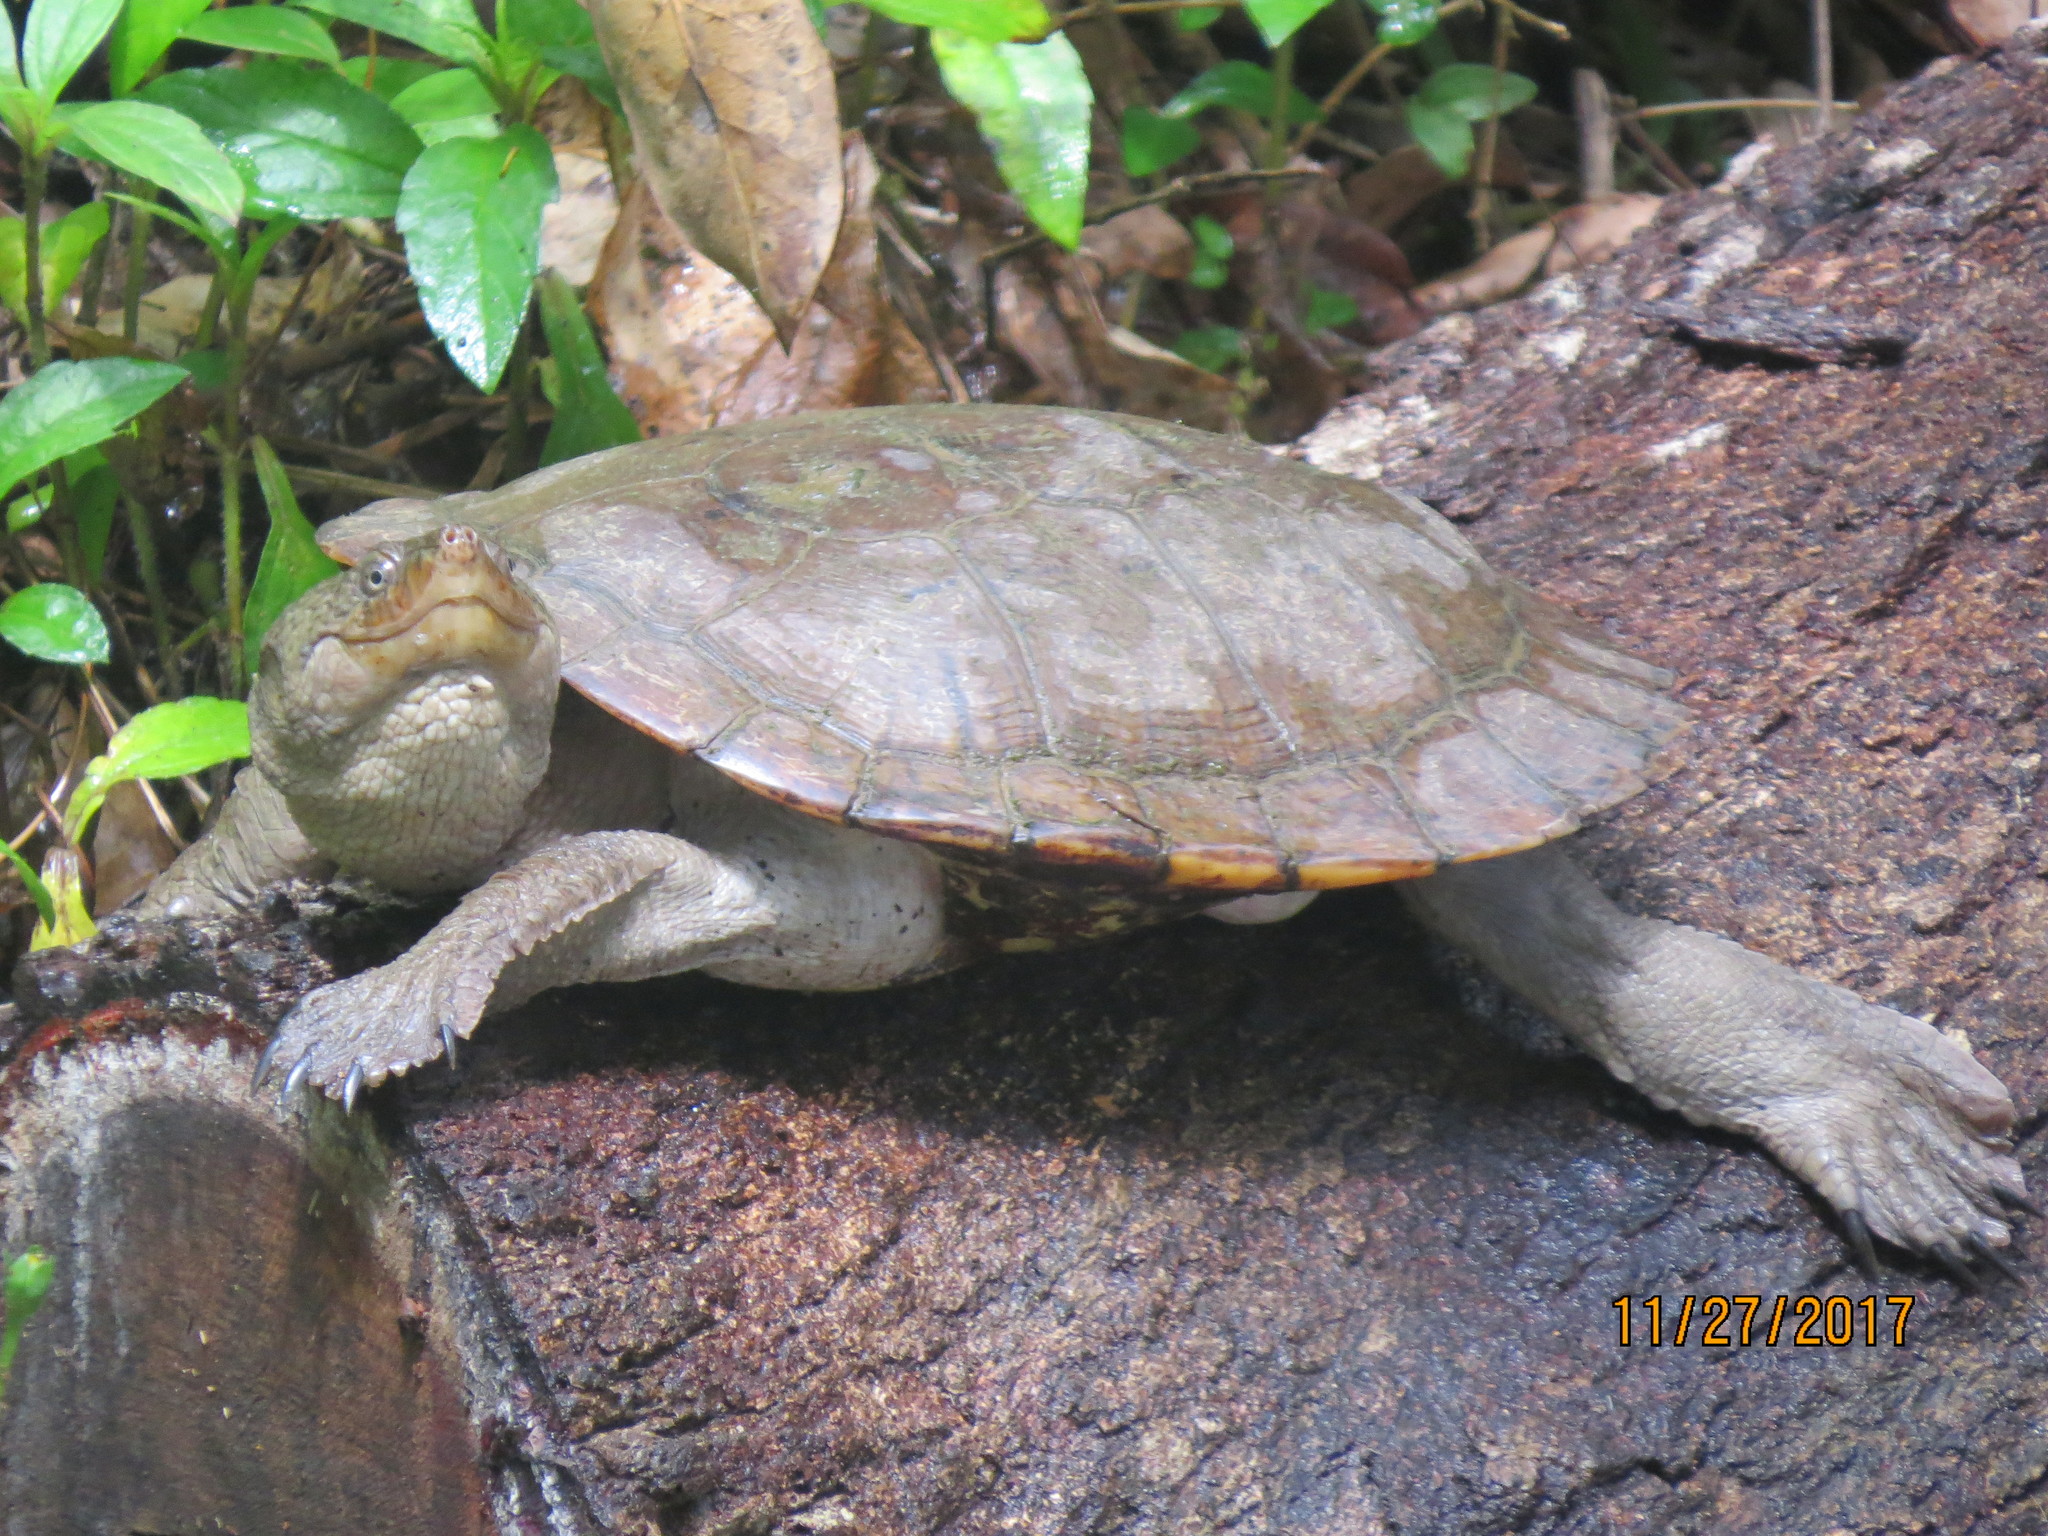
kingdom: Animalia
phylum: Chordata
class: Testudines
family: Chelidae
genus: Myuchelys
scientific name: Myuchelys latisternum
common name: Serrated snapping turtle
